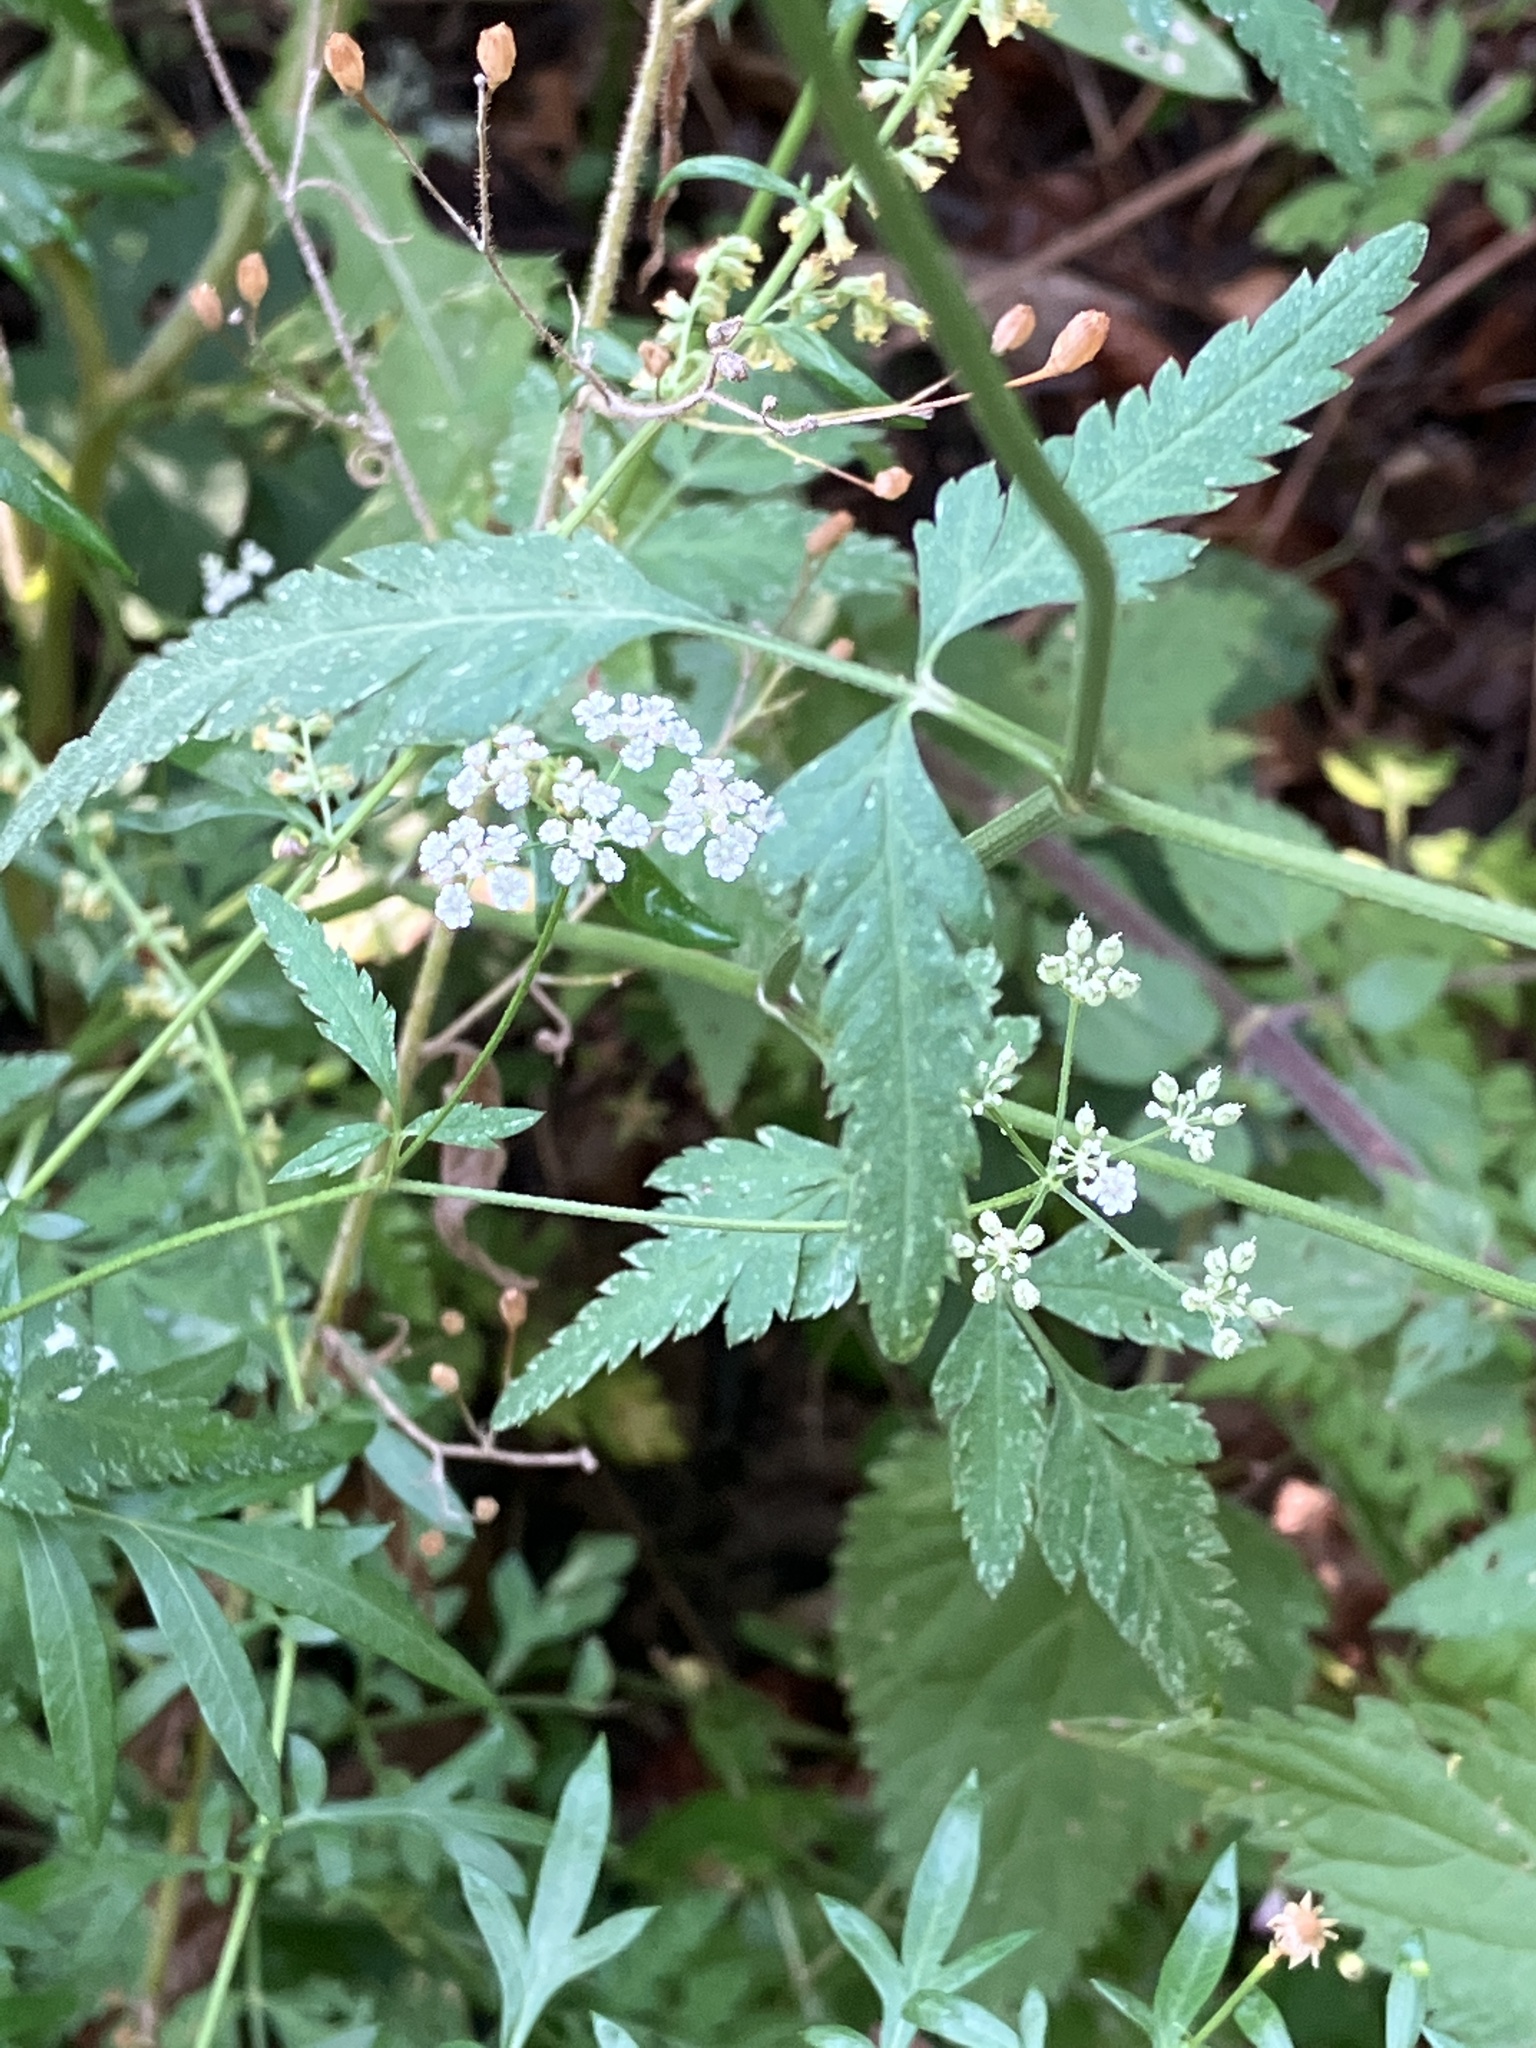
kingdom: Plantae
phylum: Tracheophyta
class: Magnoliopsida
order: Apiales
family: Apiaceae
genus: Torilis
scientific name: Torilis japonica
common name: Upright hedge-parsley
